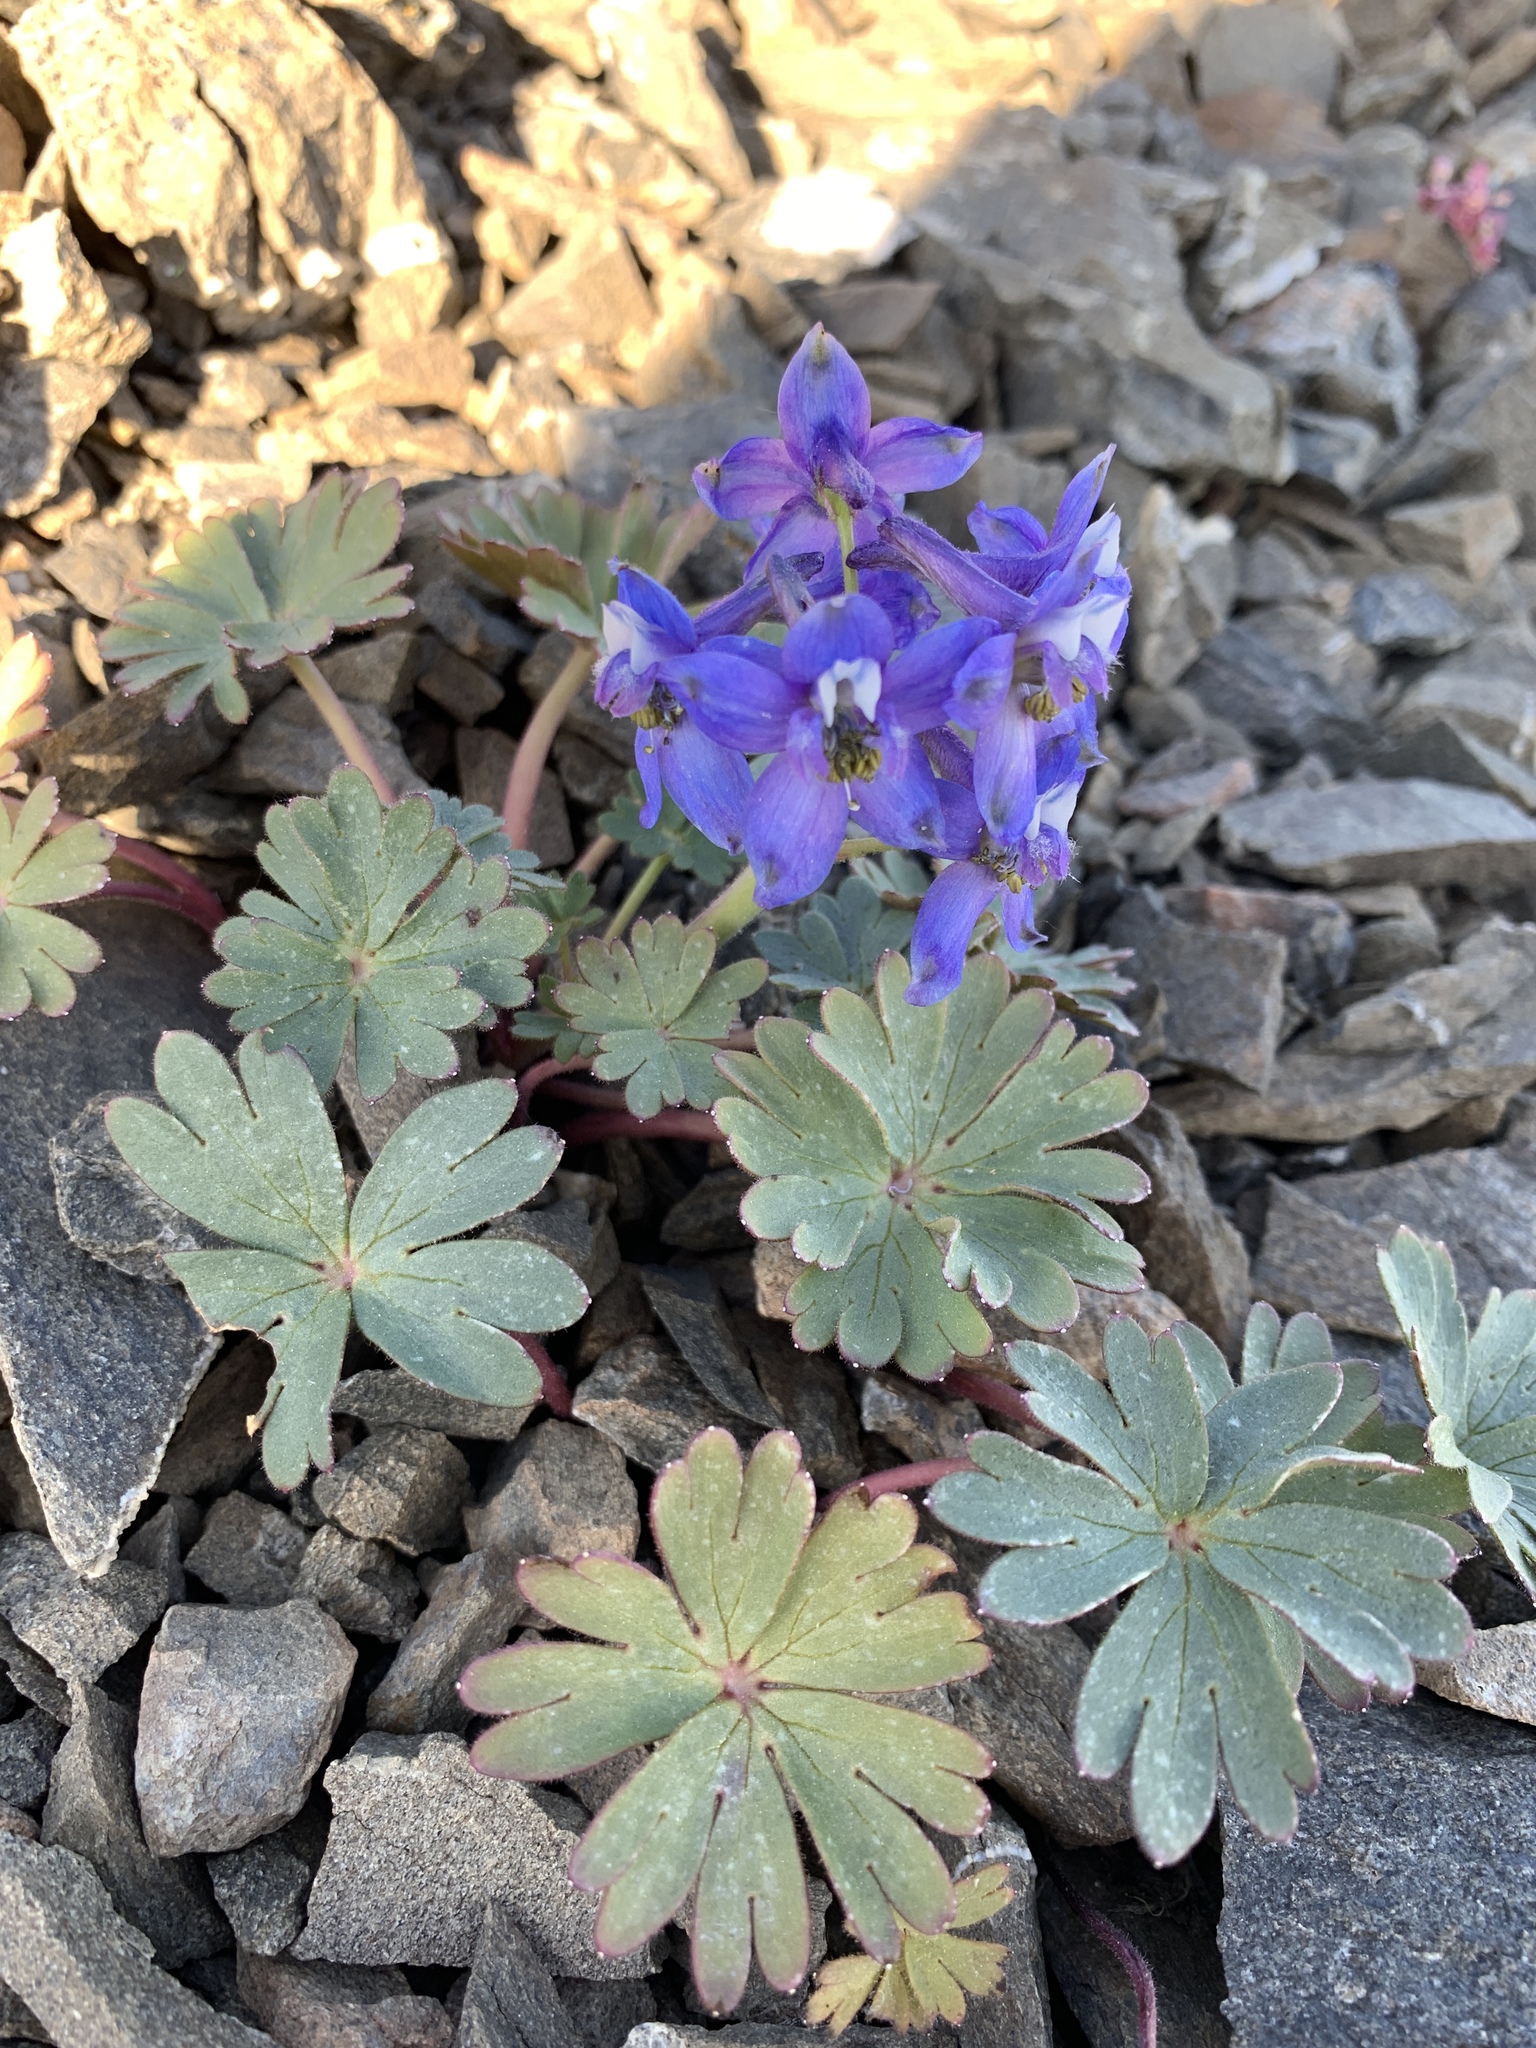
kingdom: Plantae
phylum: Tracheophyta
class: Magnoliopsida
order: Ranunculales
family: Ranunculaceae
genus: Delphinium
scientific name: Delphinium antoninum
